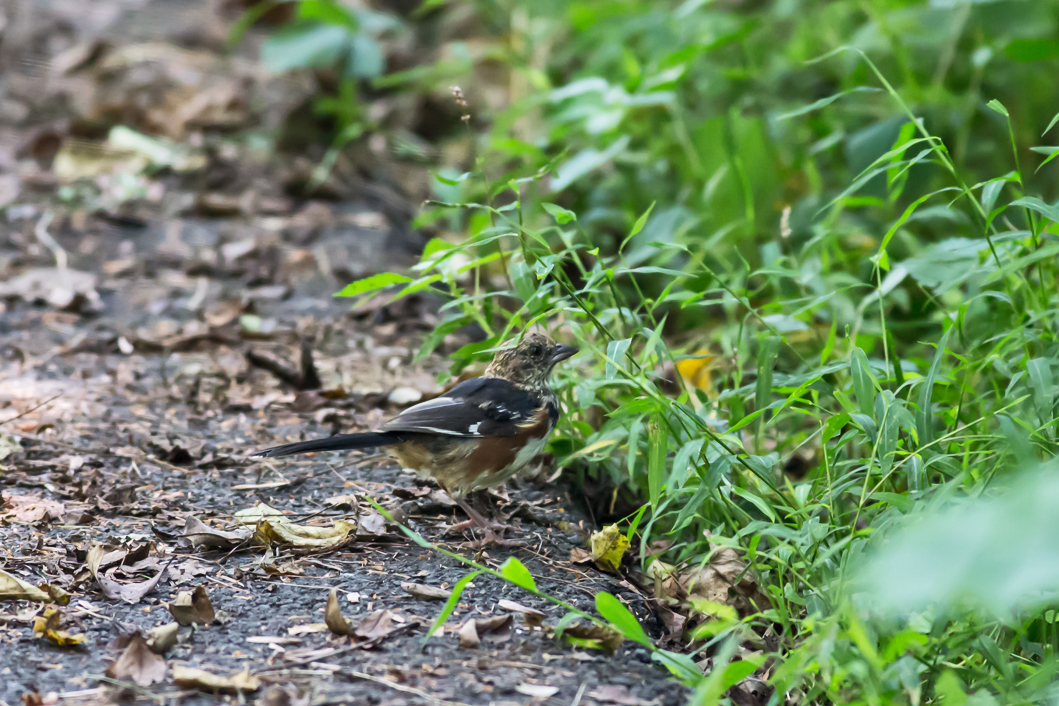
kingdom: Animalia
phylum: Chordata
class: Aves
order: Passeriformes
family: Passerellidae
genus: Pipilo
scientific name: Pipilo erythrophthalmus
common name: Eastern towhee
